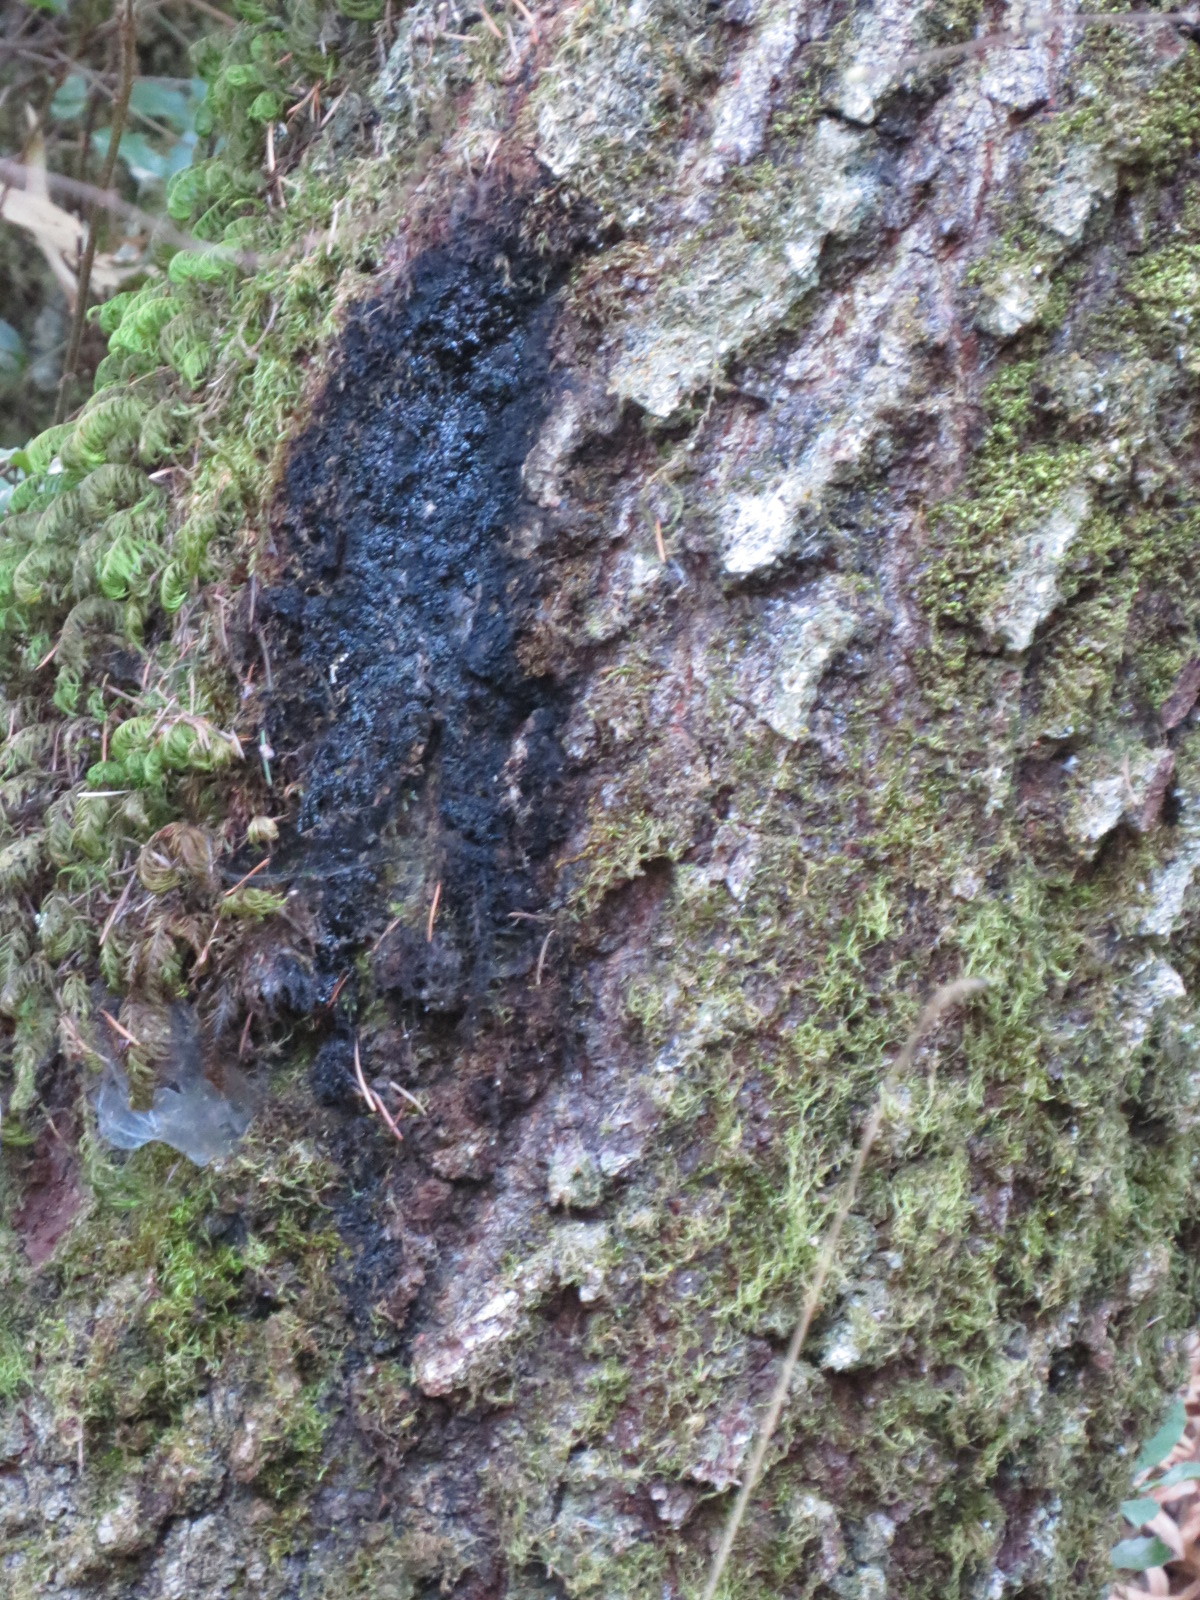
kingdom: Chromista
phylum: Oomycota
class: Peronosporea
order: Peronosporales
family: Peronosporaceae
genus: Phytophthora
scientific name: Phytophthora ramorum
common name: Sudden oak death
